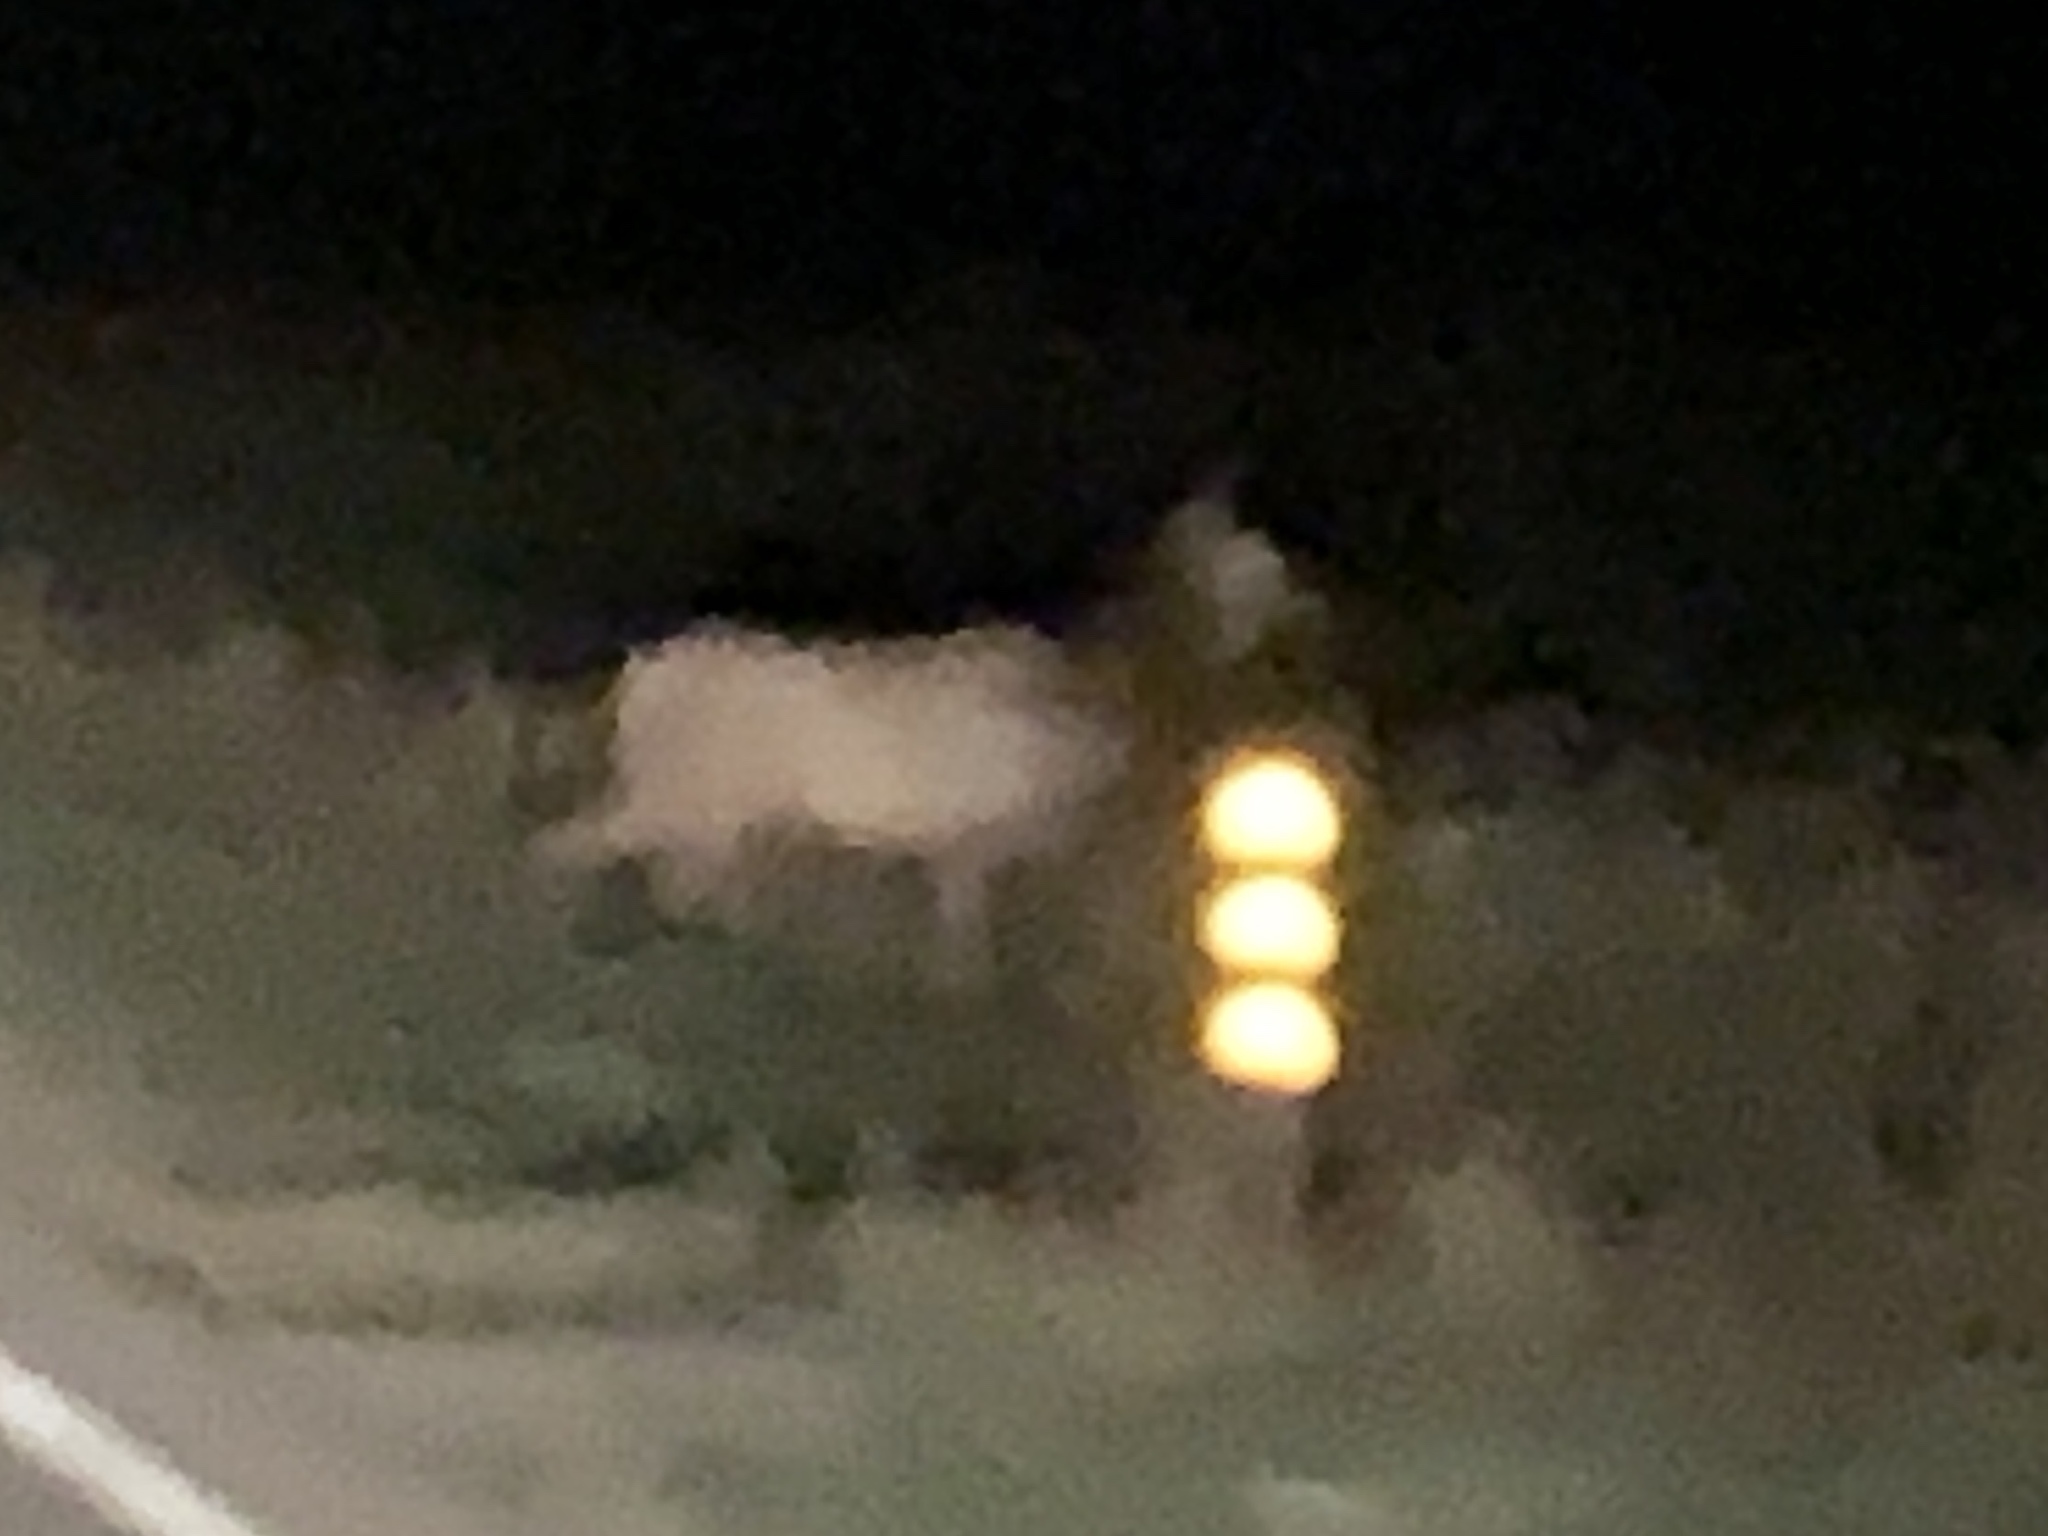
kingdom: Animalia
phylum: Chordata
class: Mammalia
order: Artiodactyla
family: Cervidae
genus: Cervus
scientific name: Cervus elaphus
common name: Red deer
